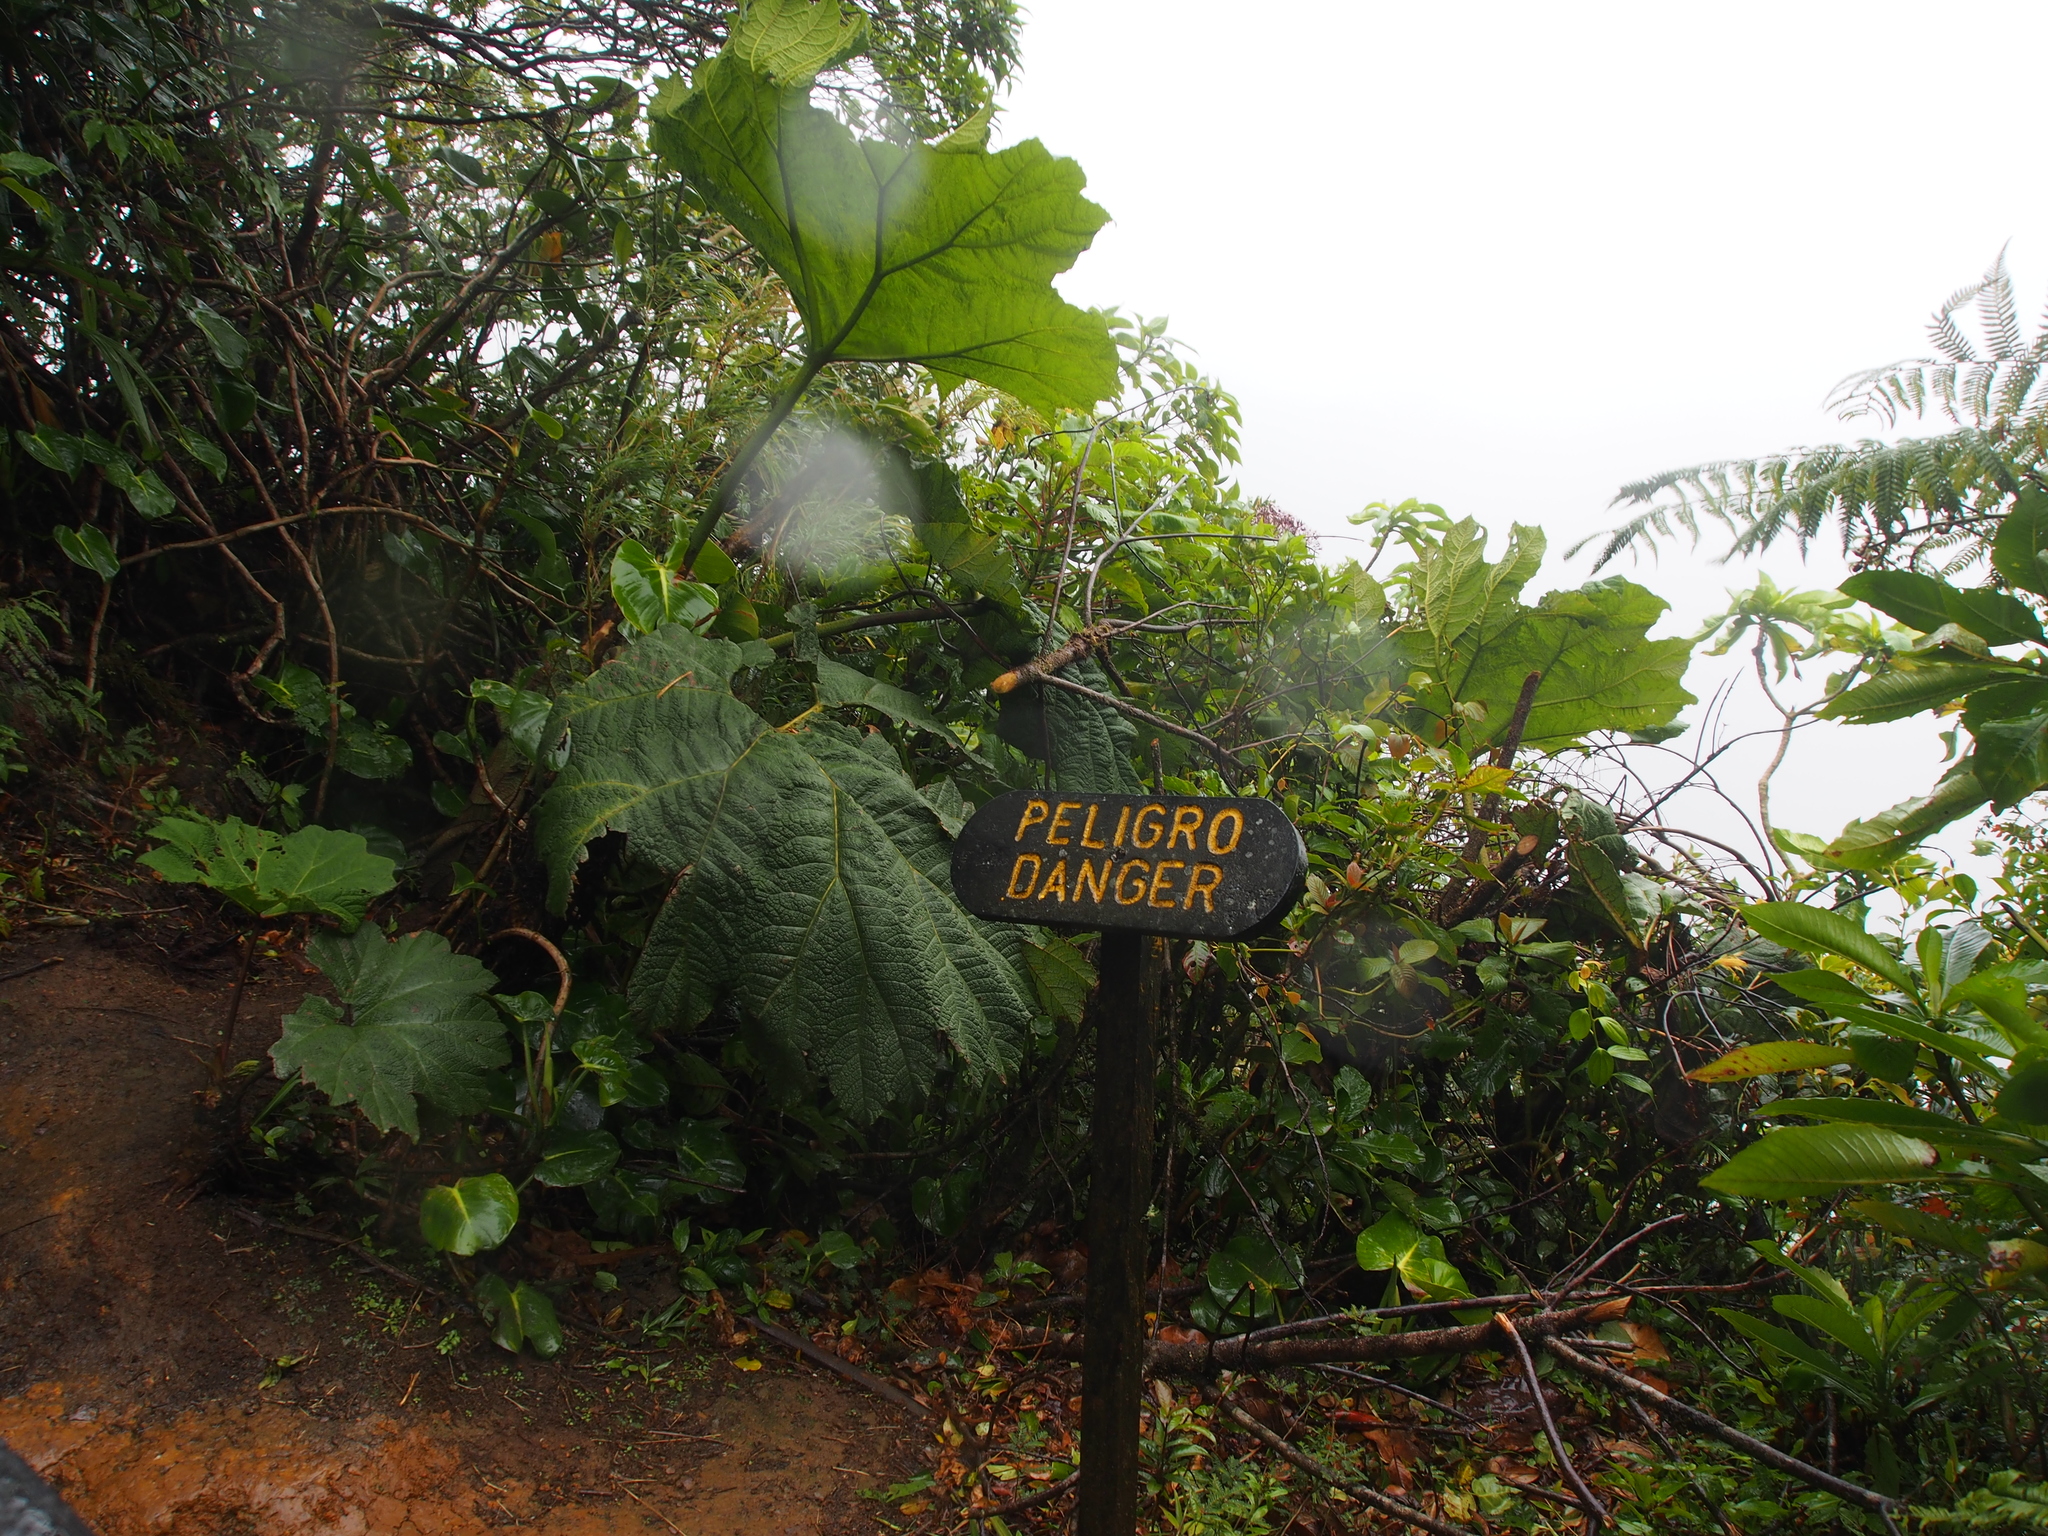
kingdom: Plantae
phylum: Tracheophyta
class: Magnoliopsida
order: Gunnerales
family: Gunneraceae
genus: Gunnera
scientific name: Gunnera insignis
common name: Poorman's umbrella
